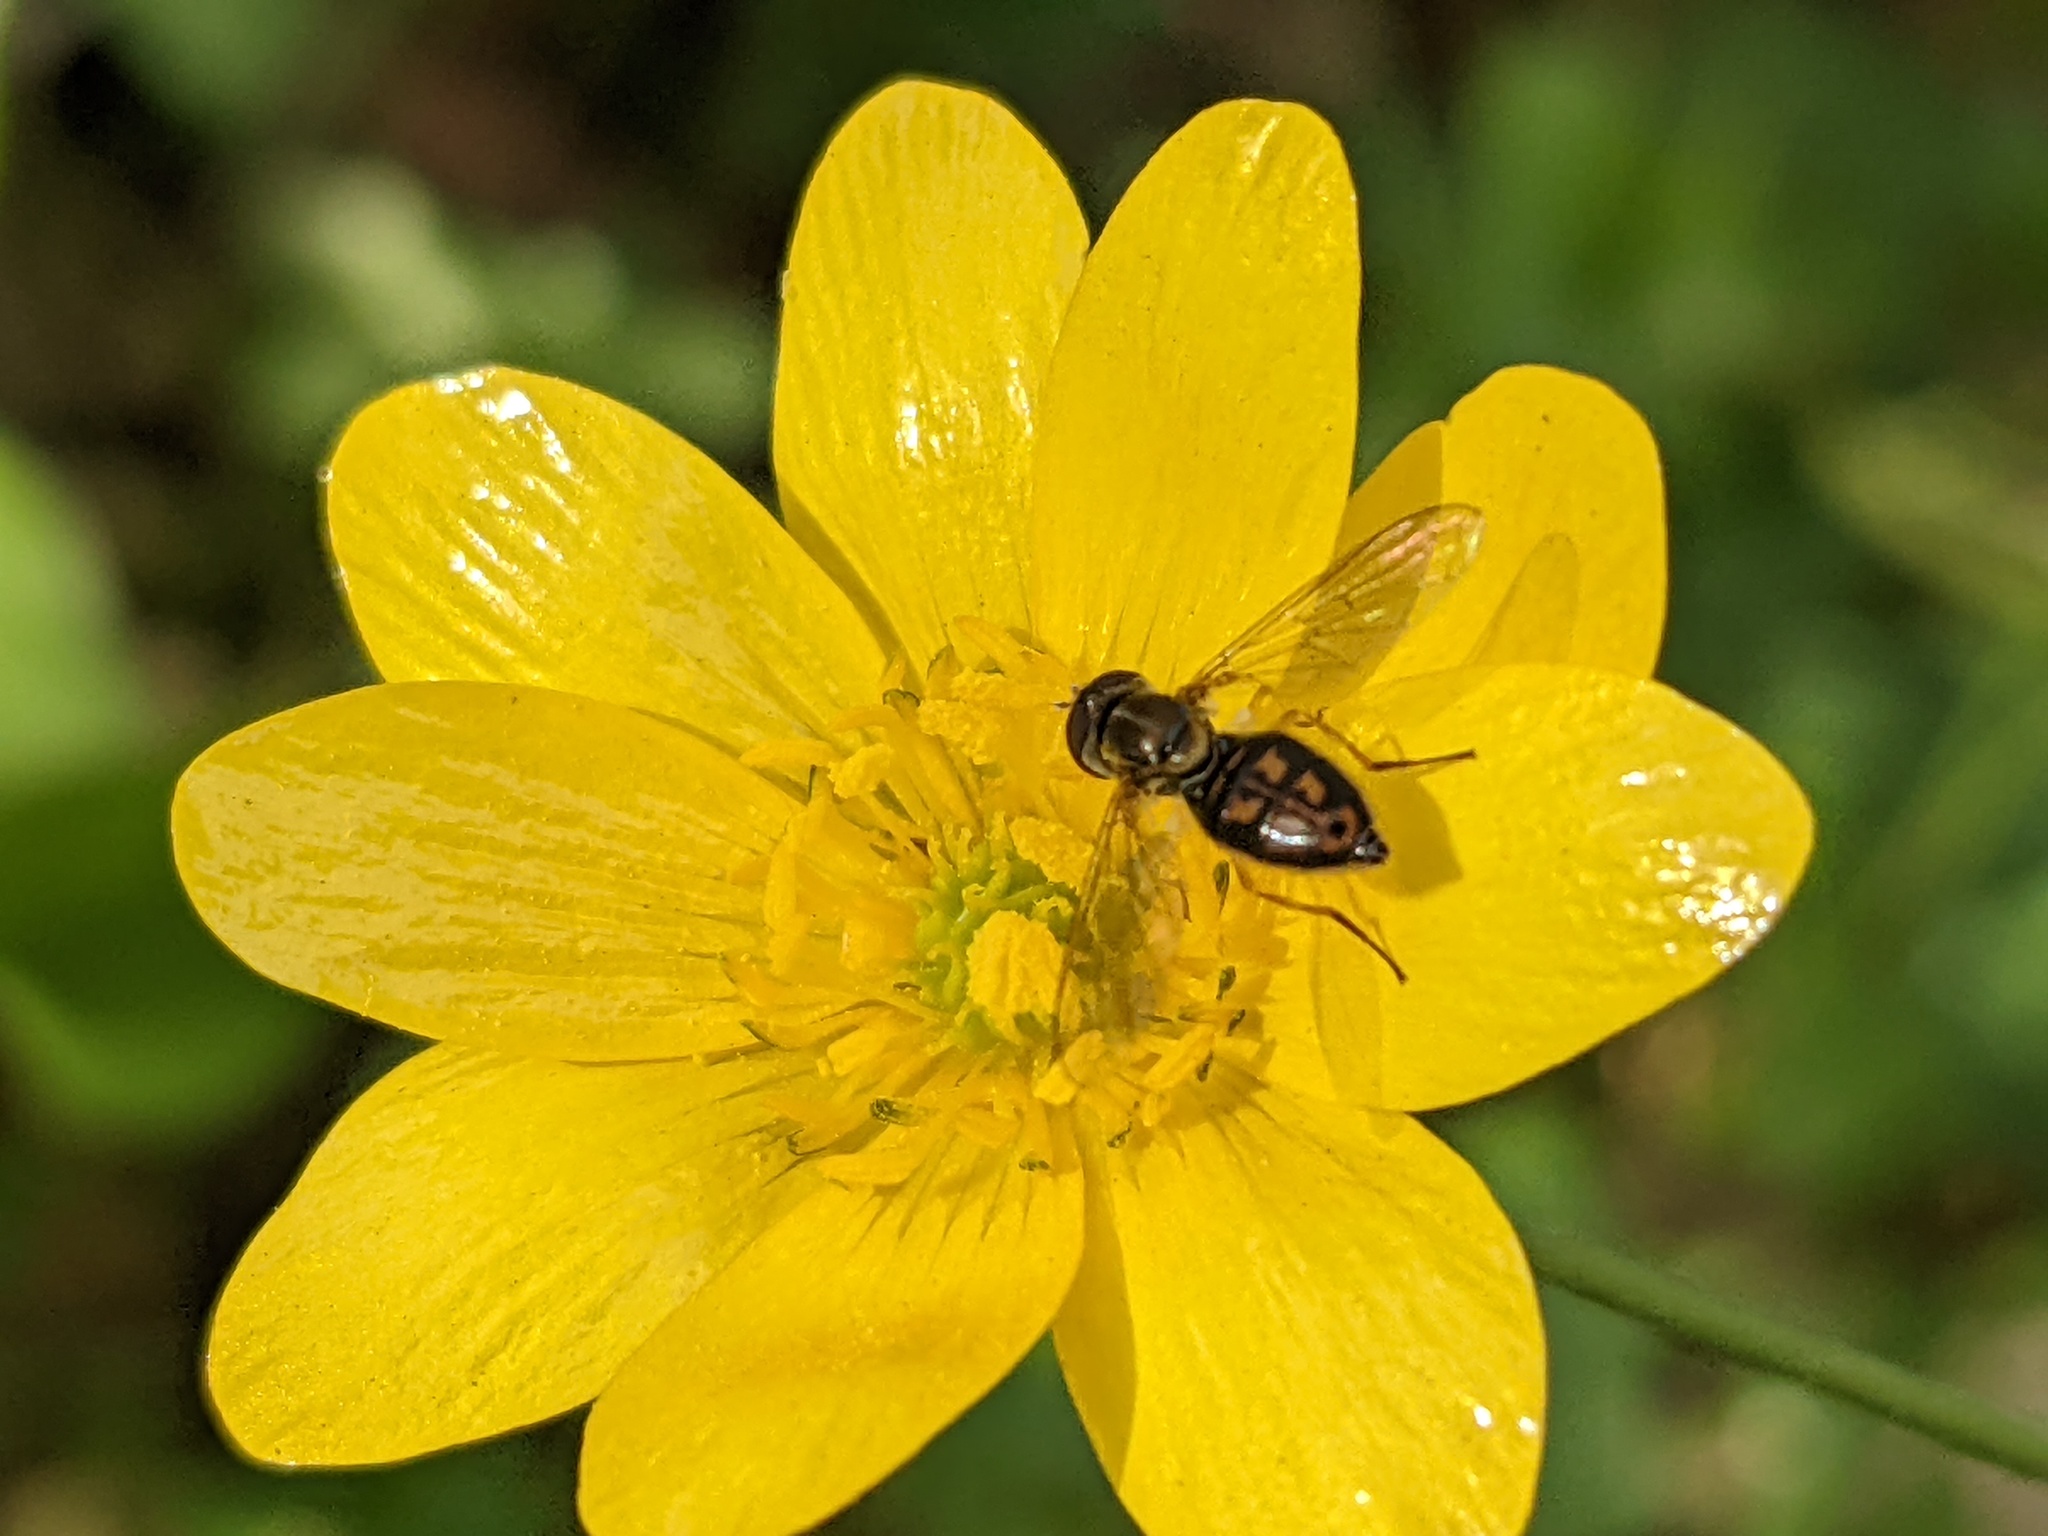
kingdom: Animalia
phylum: Arthropoda
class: Insecta
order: Diptera
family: Syrphidae
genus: Toxomerus
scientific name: Toxomerus marginatus
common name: Syrphid fly
